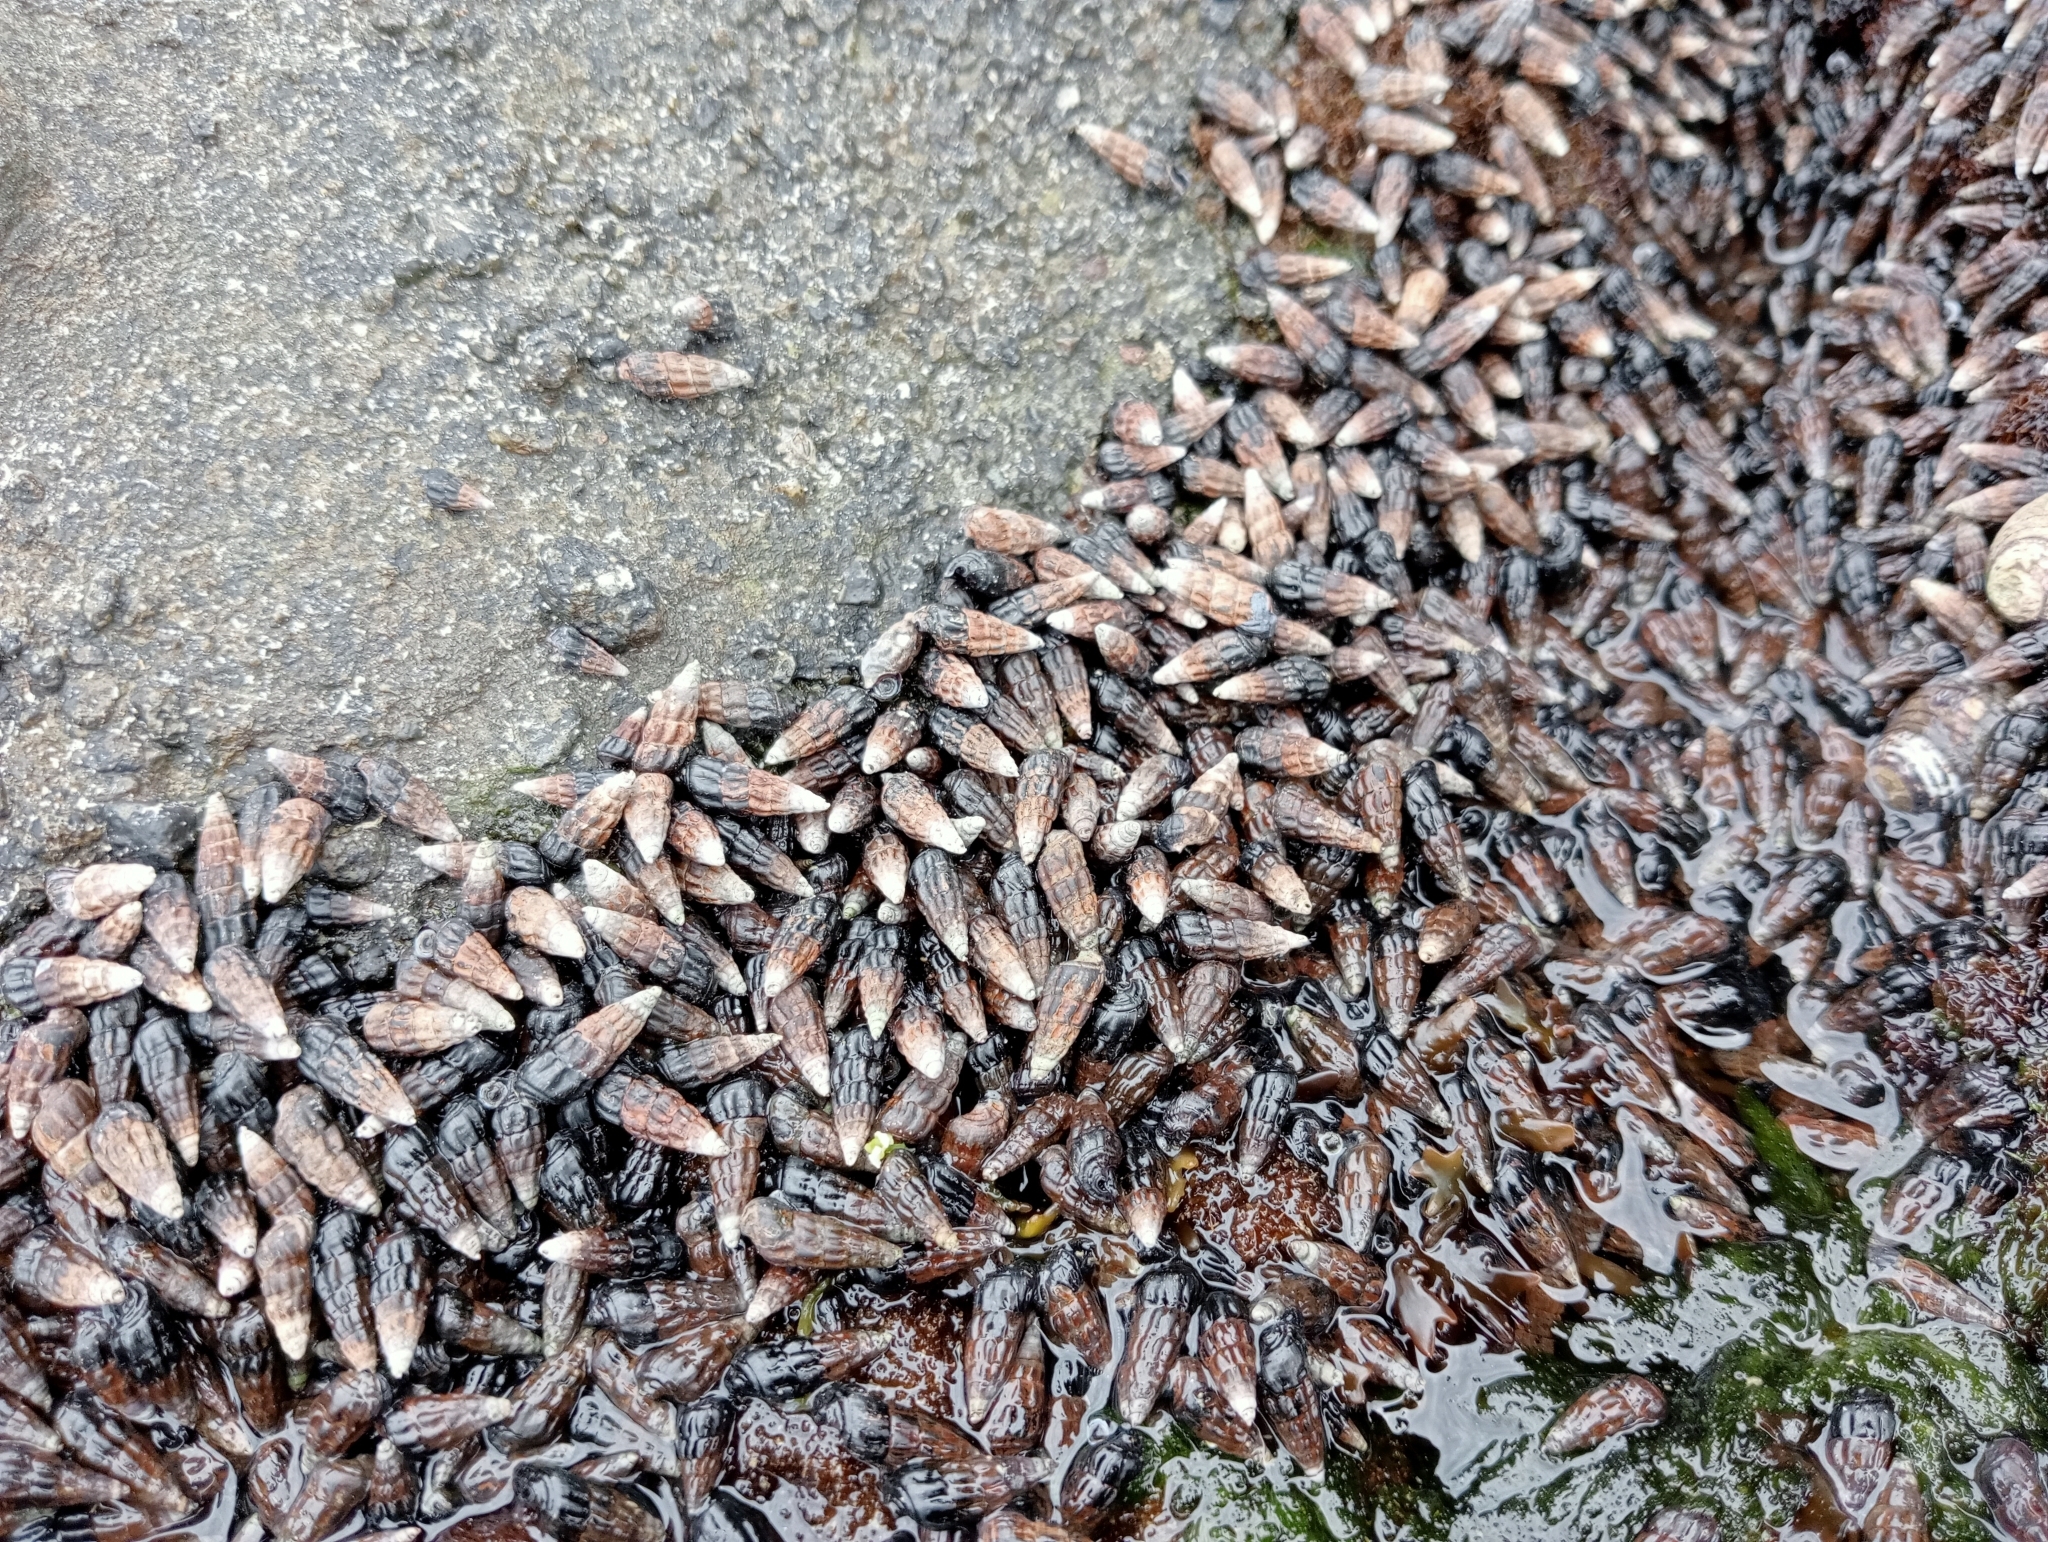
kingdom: Animalia
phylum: Mollusca
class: Gastropoda
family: Batillariidae
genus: Zeacumantus
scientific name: Zeacumantus subcarinatus
